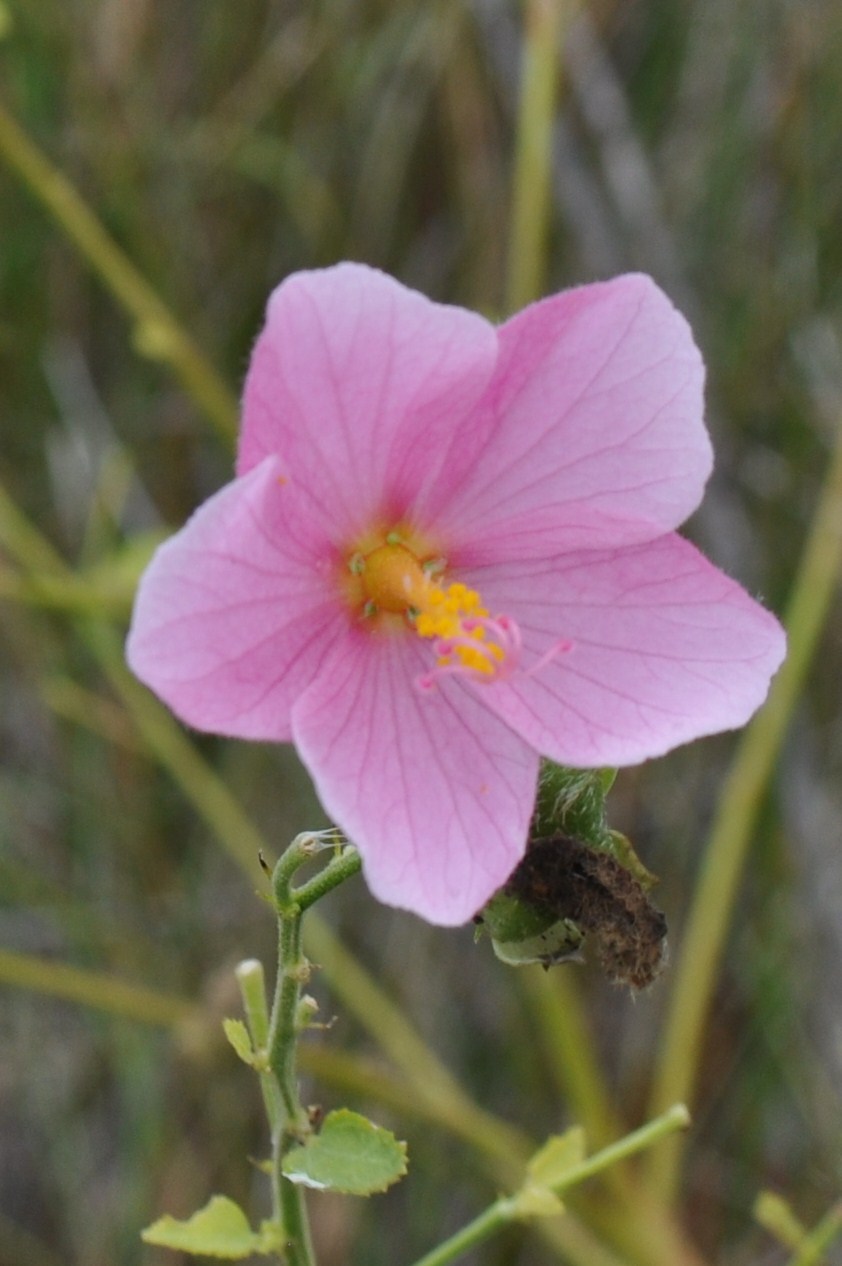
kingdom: Plantae
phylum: Tracheophyta
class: Magnoliopsida
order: Malvales
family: Malvaceae
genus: Kosteletzkya
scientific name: Kosteletzkya pentacarpos
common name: Virginia saltmarsh mallow
